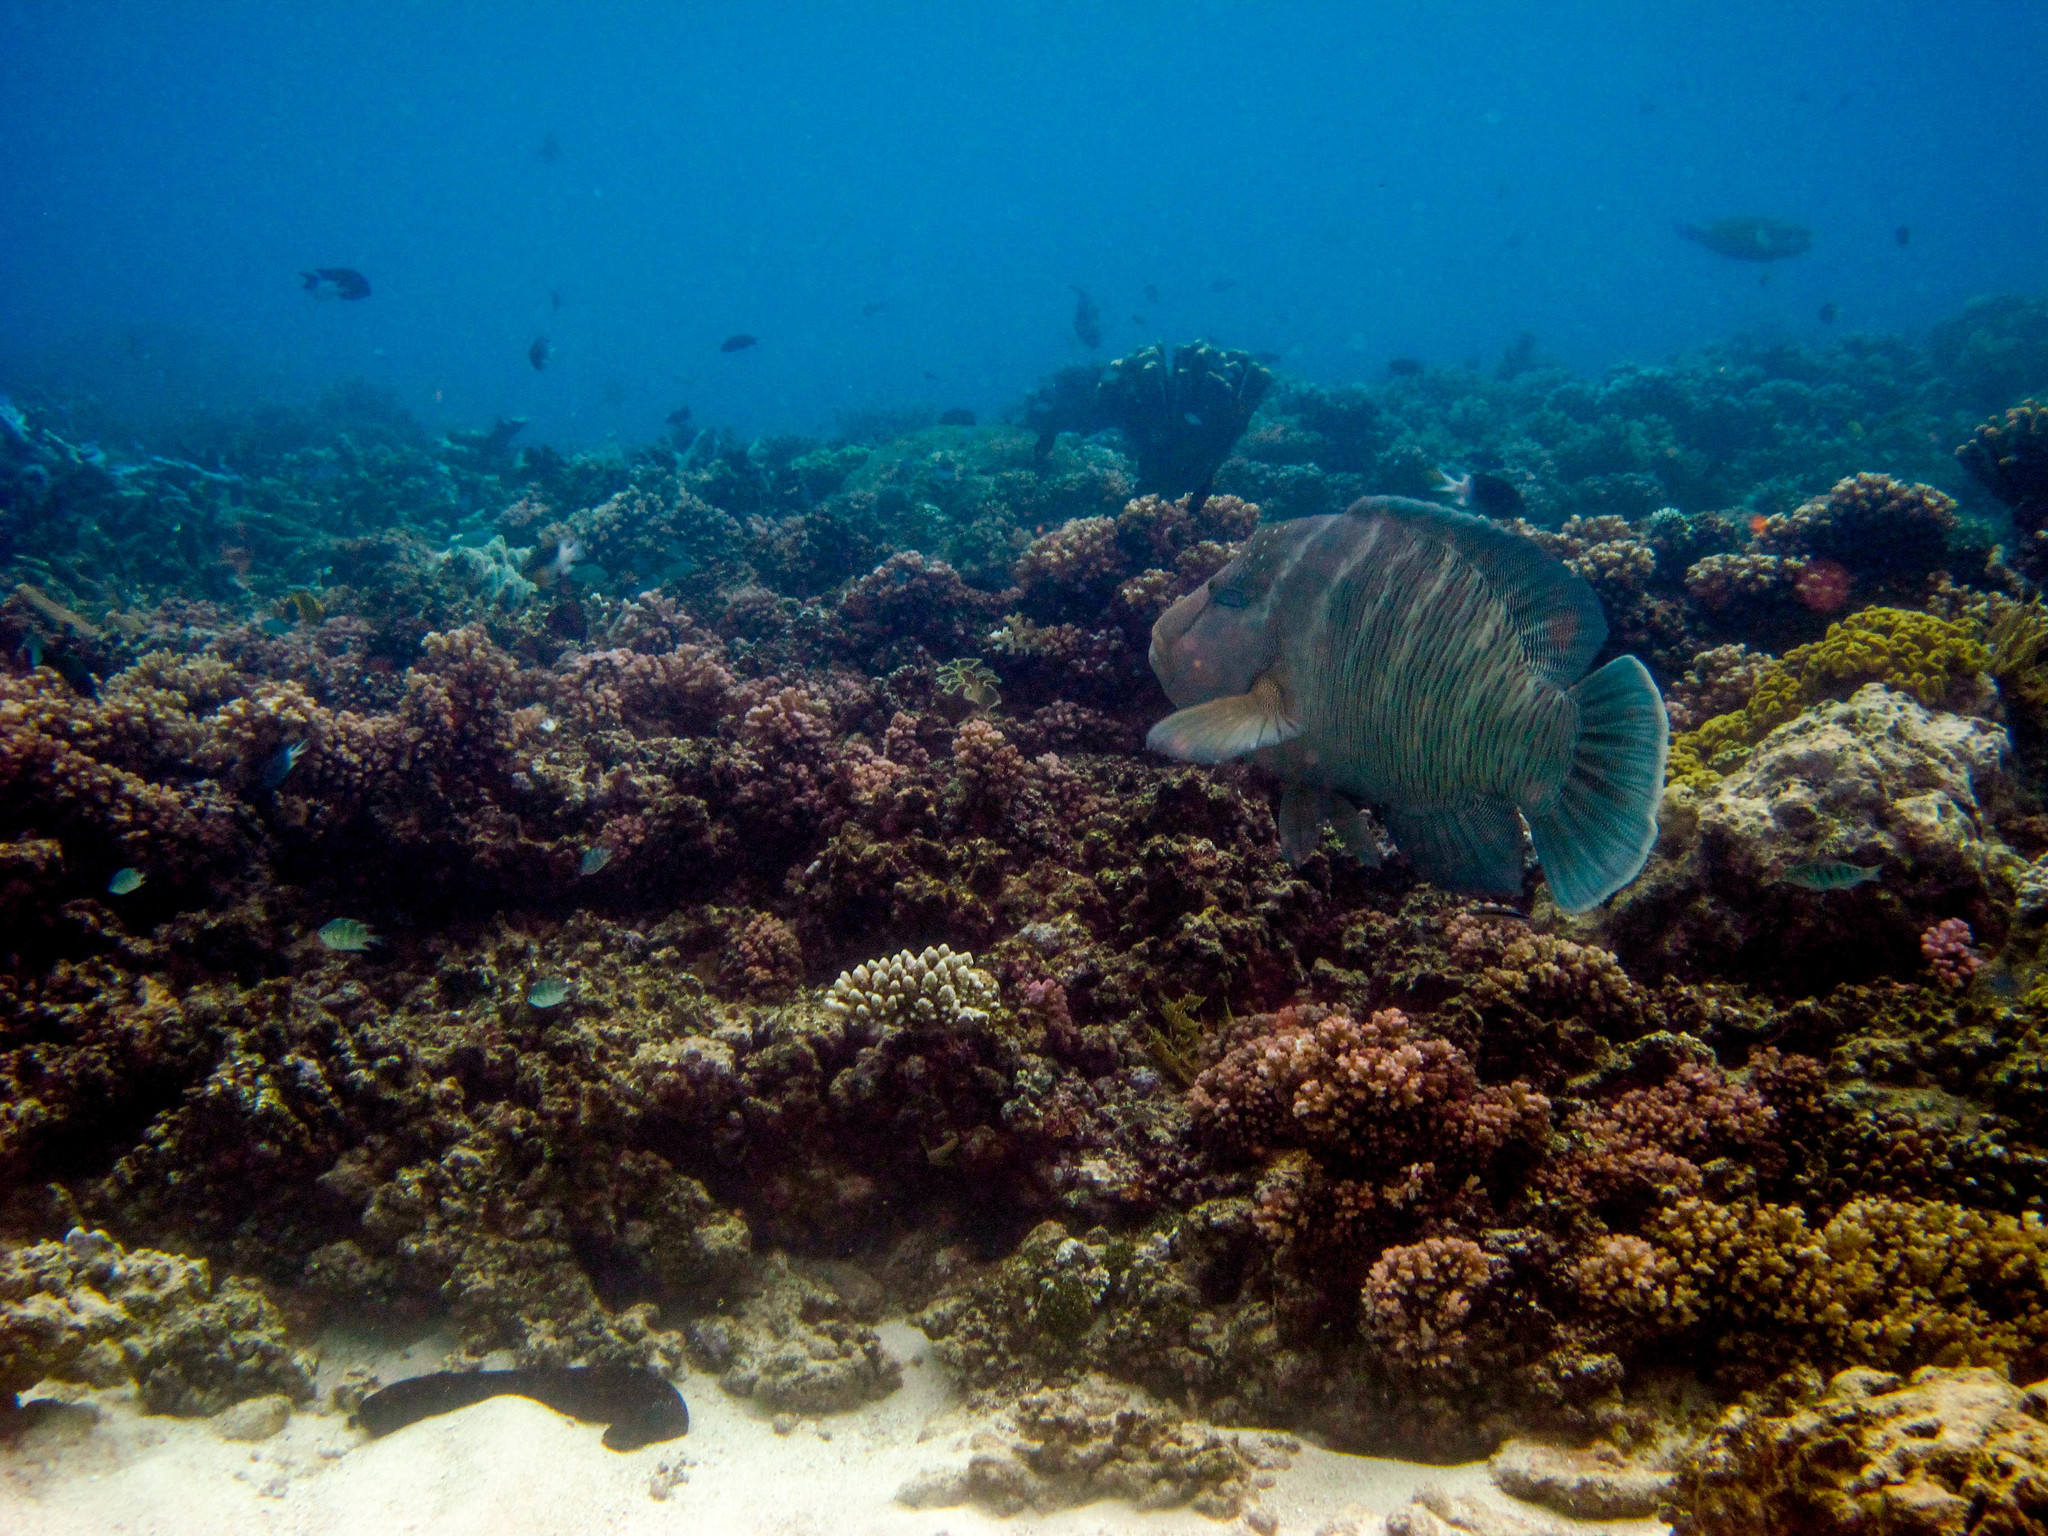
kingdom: Animalia
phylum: Chordata
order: Perciformes
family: Labridae
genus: Cheilinus
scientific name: Cheilinus undulatus
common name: Humphead wrasse
